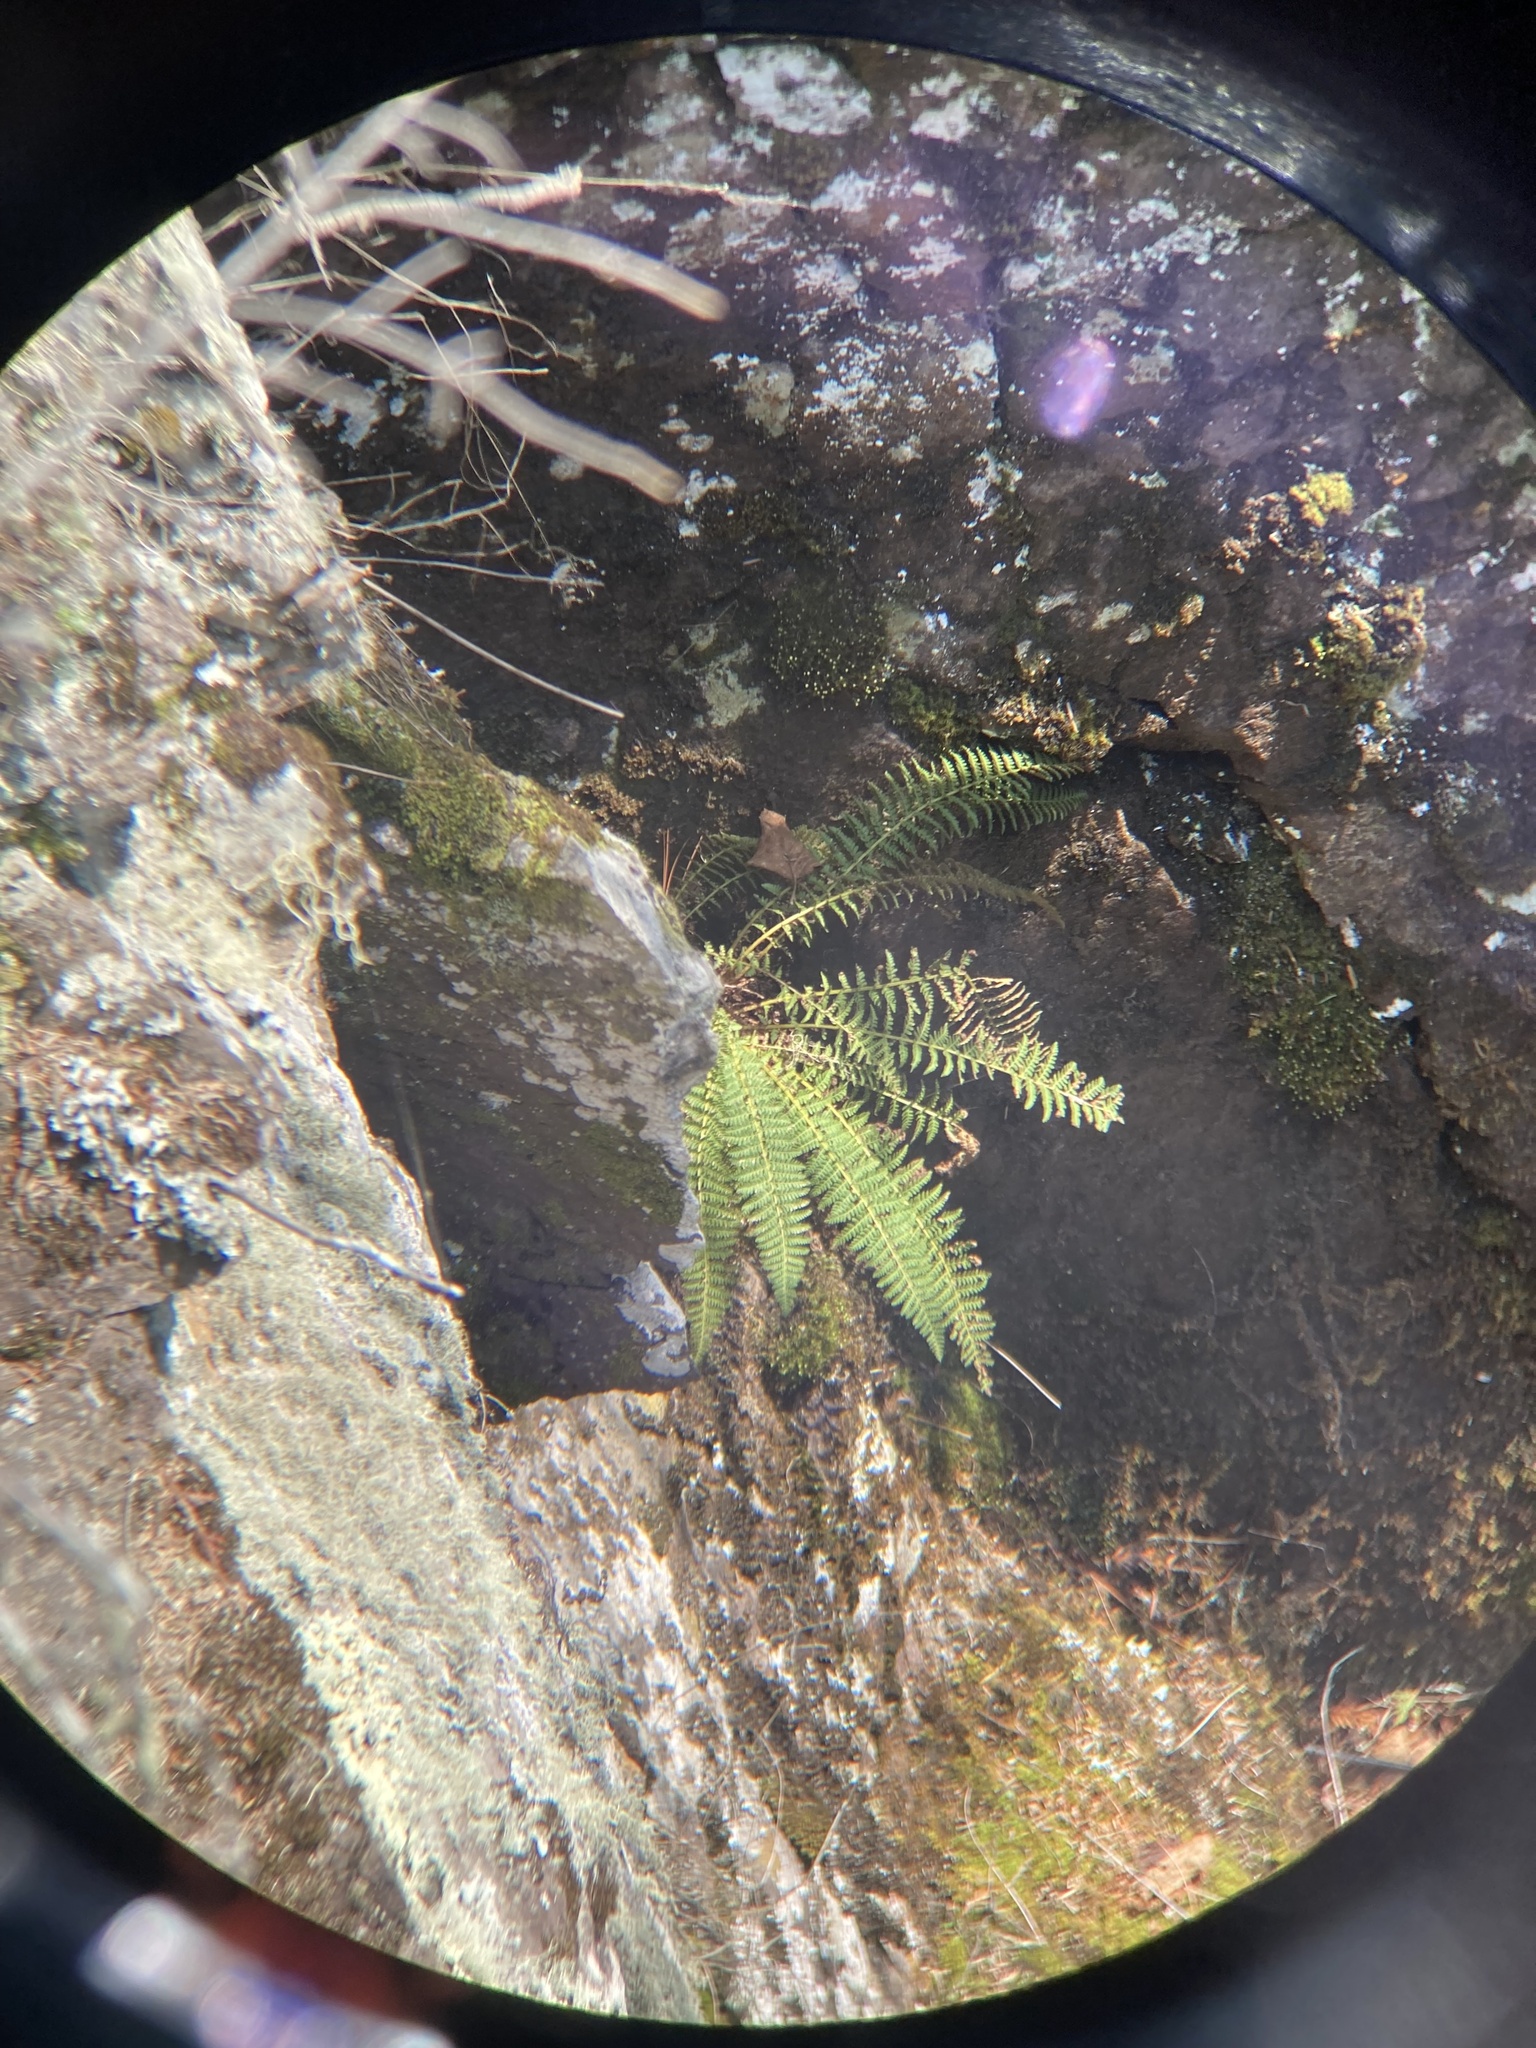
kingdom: Plantae
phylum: Tracheophyta
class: Polypodiopsida
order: Polypodiales
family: Dryopteridaceae
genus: Dryopteris
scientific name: Dryopteris fragrans
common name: Fragrant wood fern
